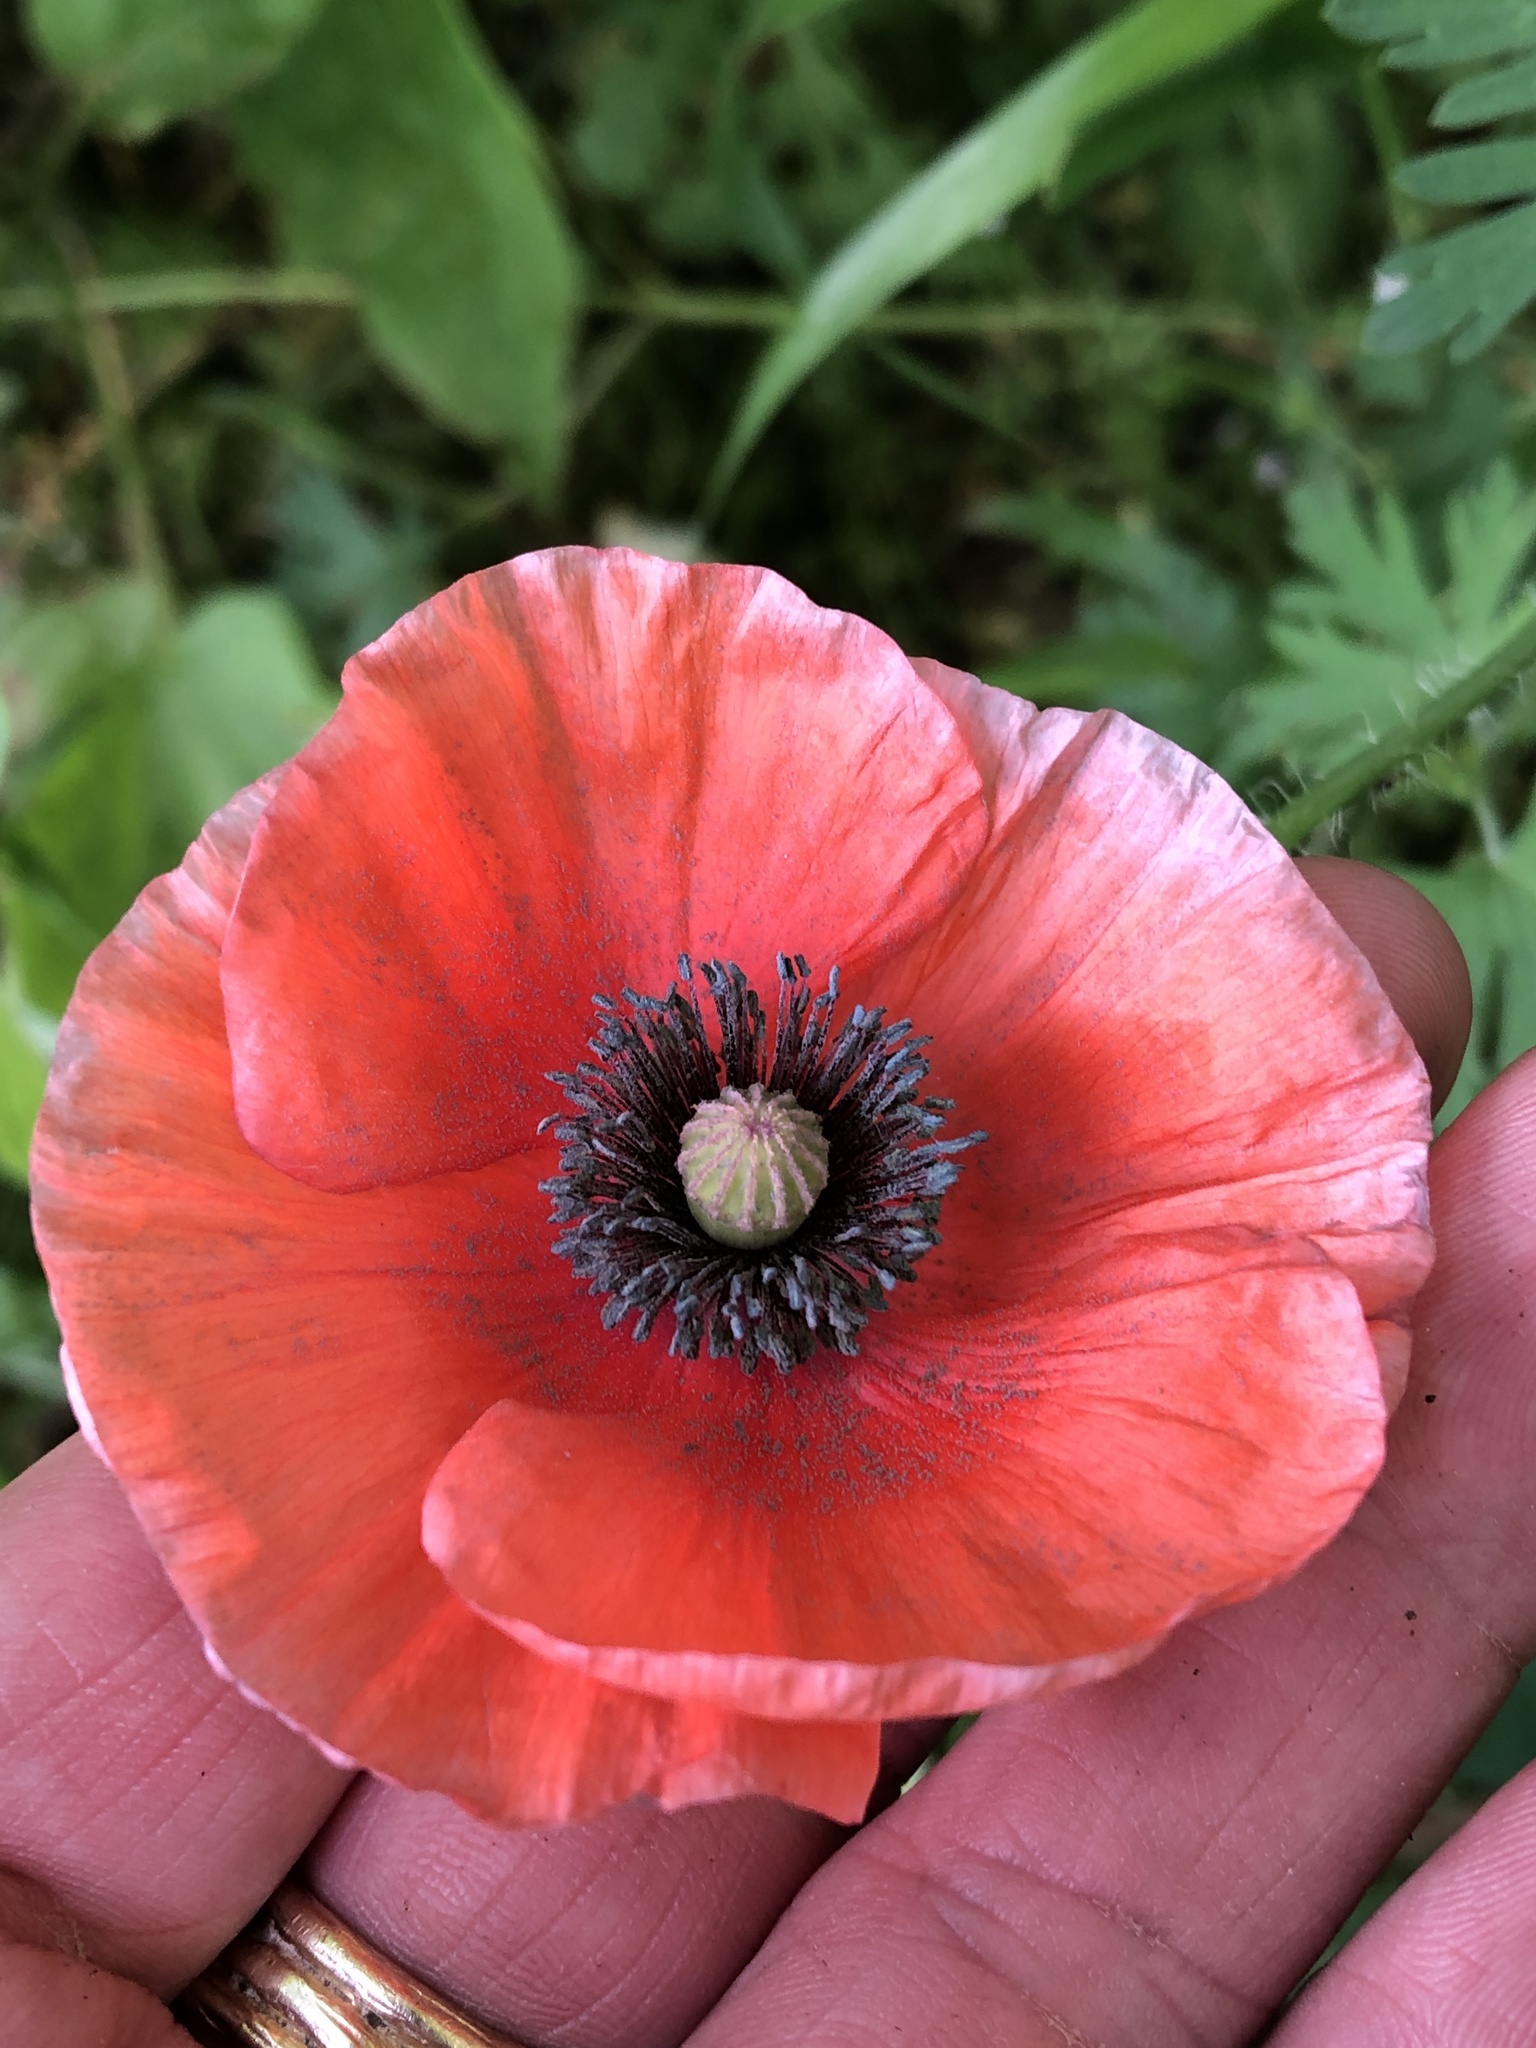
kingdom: Plantae
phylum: Tracheophyta
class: Magnoliopsida
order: Ranunculales
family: Papaveraceae
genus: Papaver
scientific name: Papaver rhoeas
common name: Corn poppy
